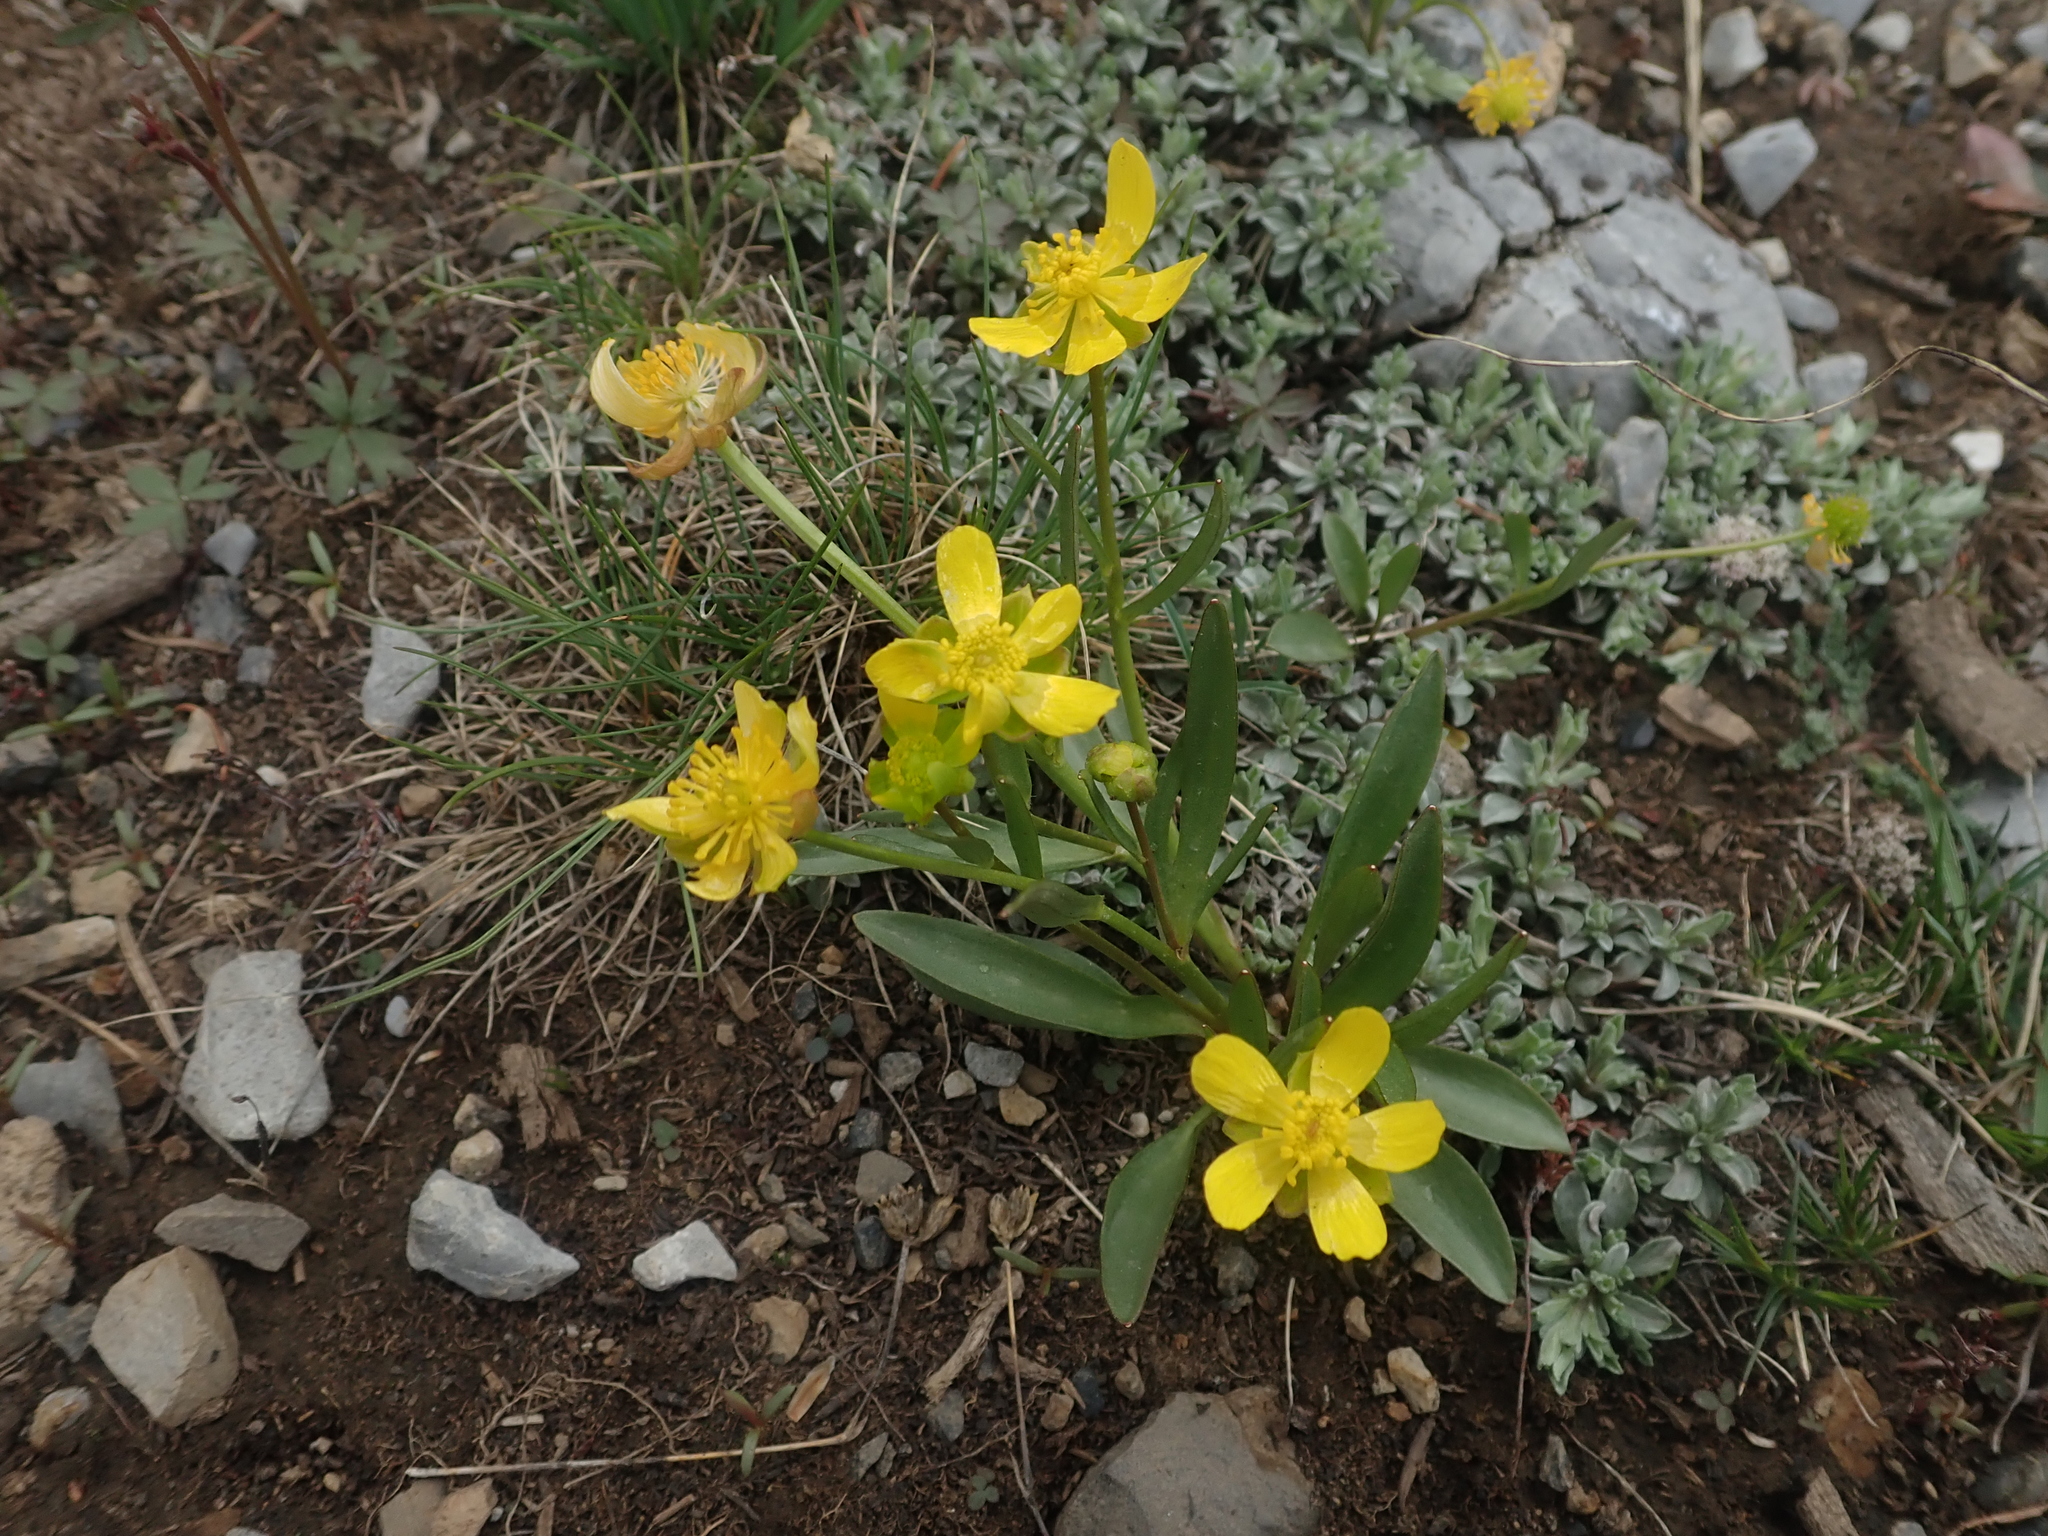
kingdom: Plantae
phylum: Tracheophyta
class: Magnoliopsida
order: Ranunculales
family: Ranunculaceae
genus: Ranunculus
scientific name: Ranunculus glaberrimus
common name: Sagebrush buttercup
